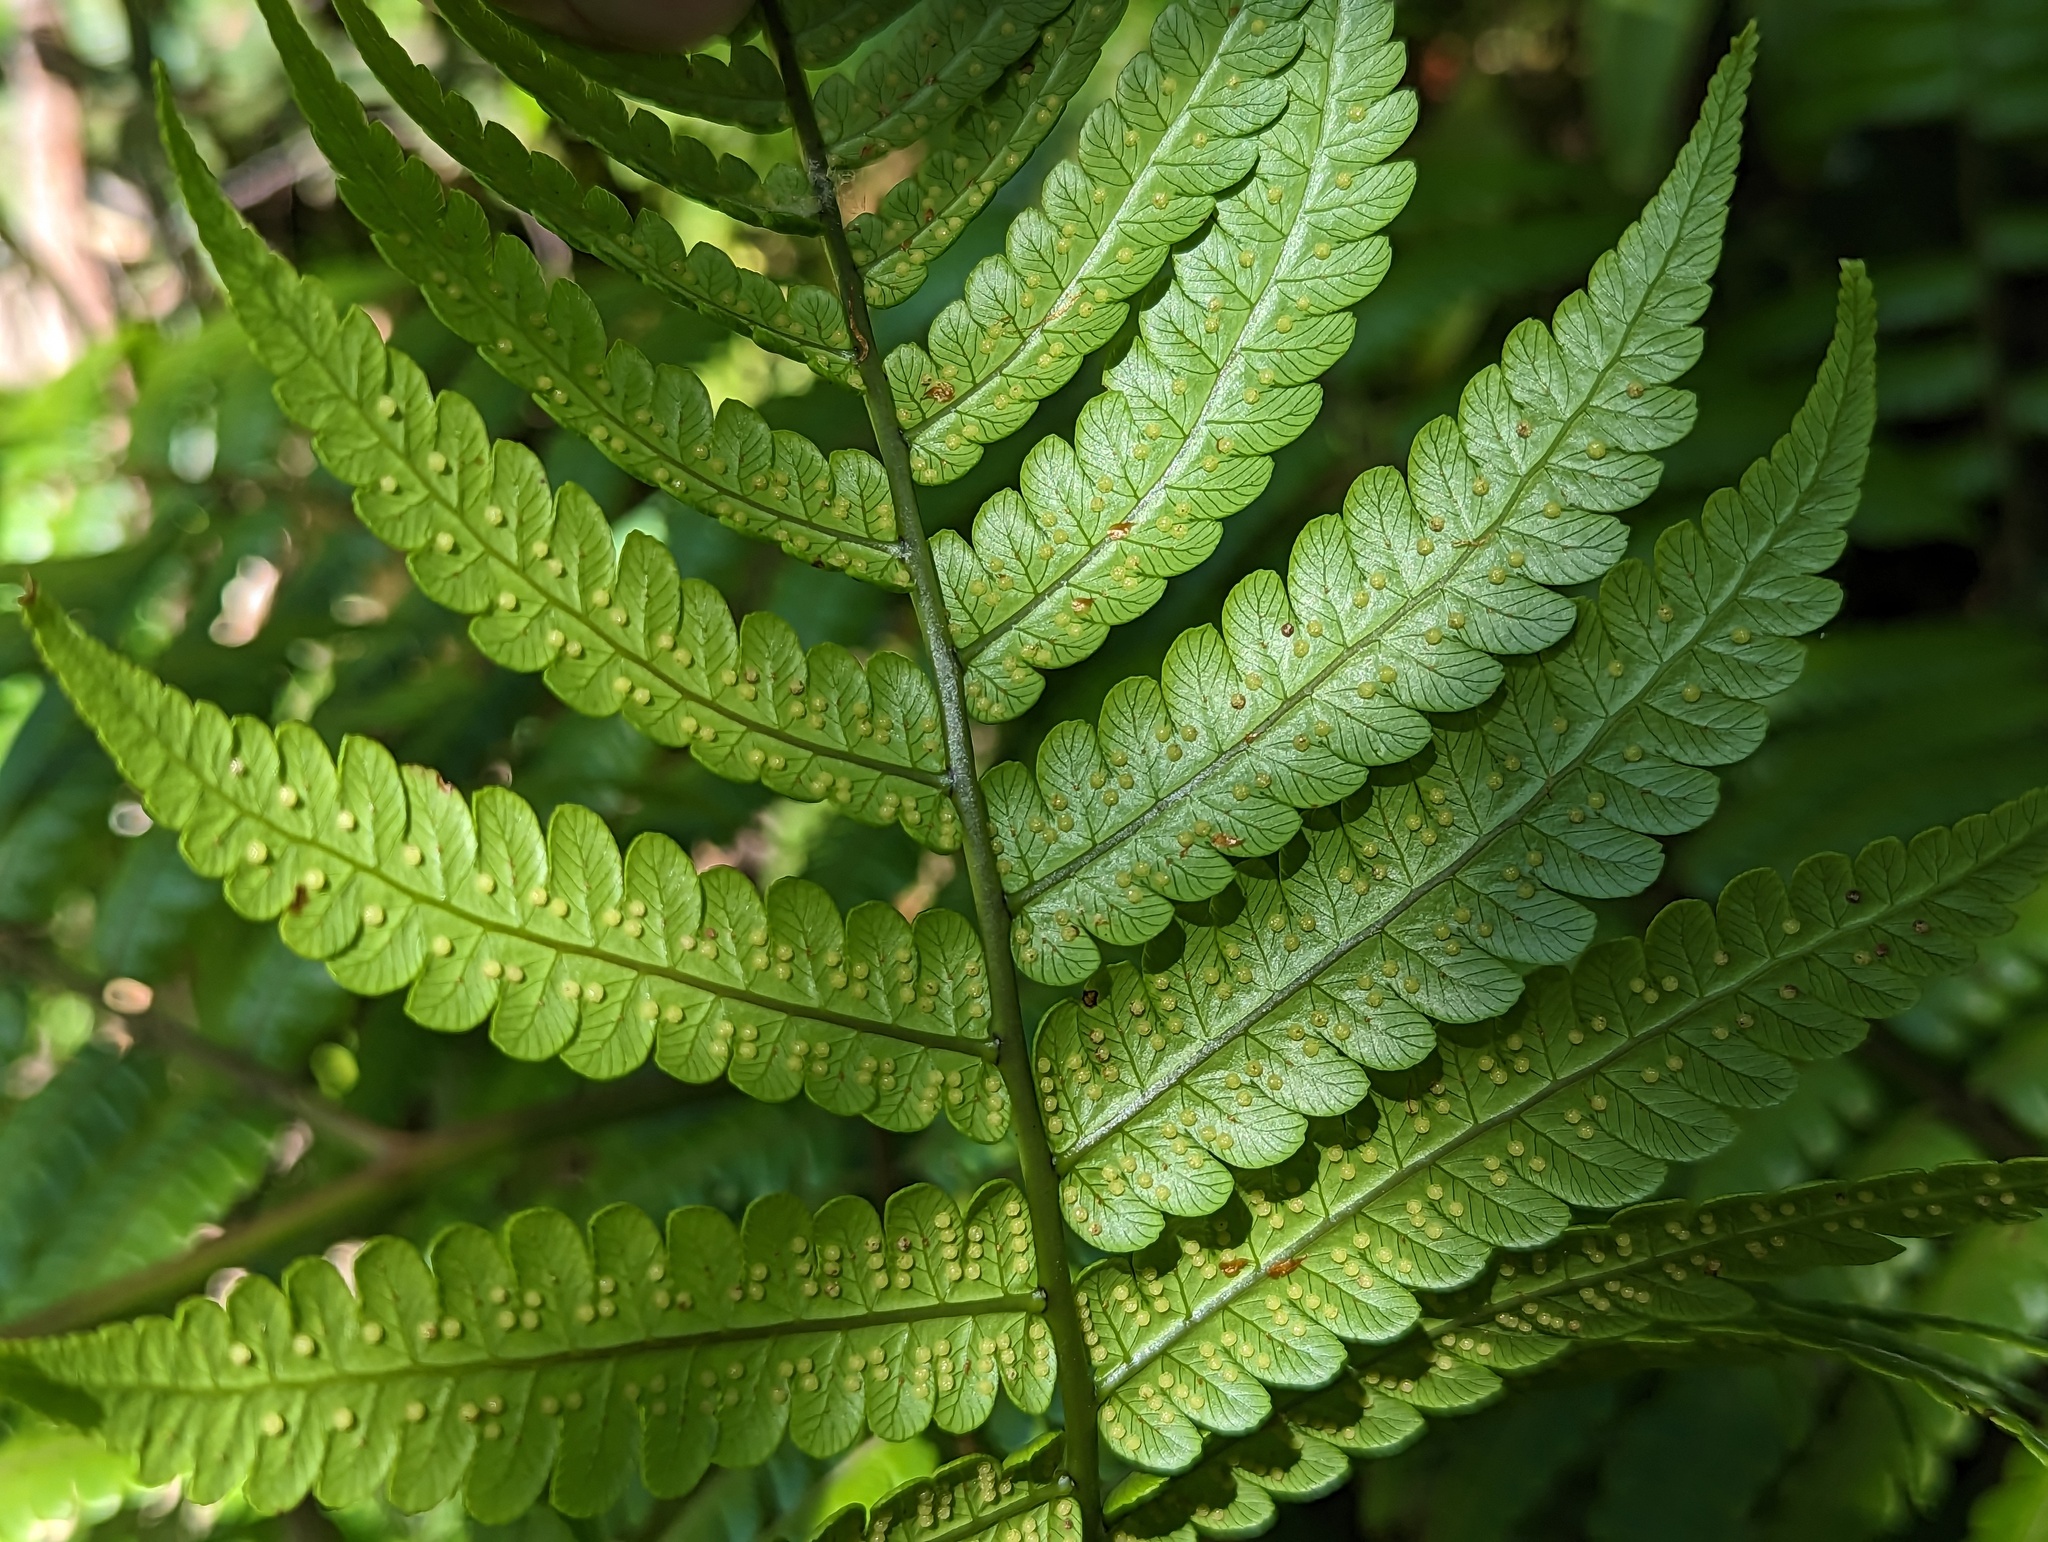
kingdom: Plantae
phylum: Tracheophyta
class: Polypodiopsida
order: Cyatheales
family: Cyatheaceae
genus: Cyathea
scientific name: Cyathea borinquena
